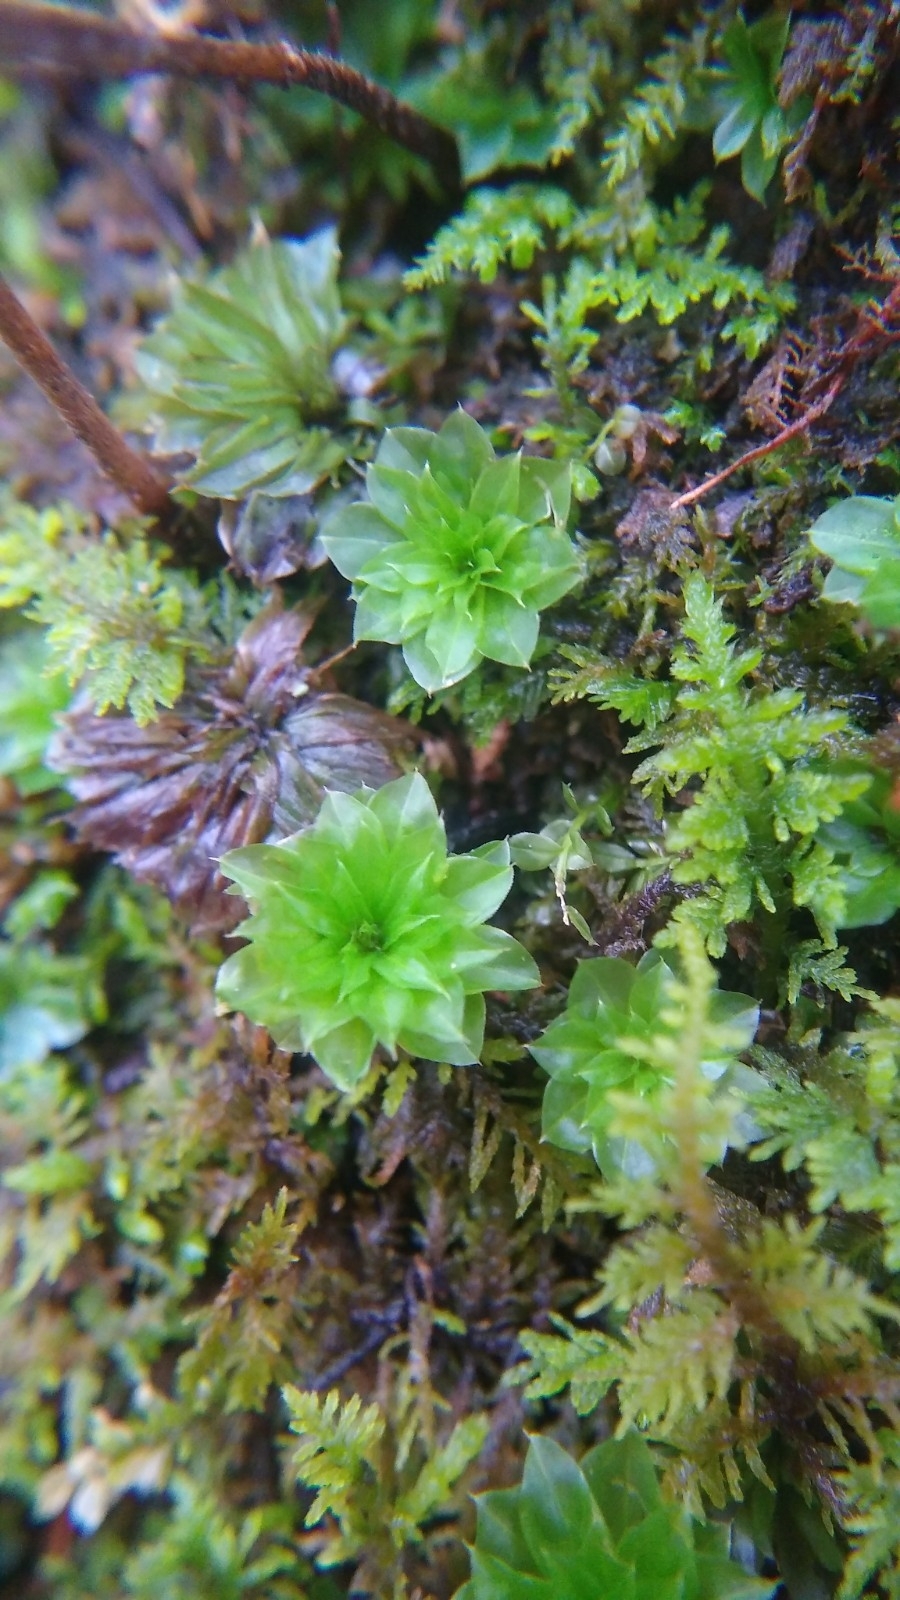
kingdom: Plantae
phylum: Bryophyta
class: Bryopsida
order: Bryales
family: Bryaceae
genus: Rhodobryum
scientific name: Rhodobryum ontariense
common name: Ontario rhodobryum moss
